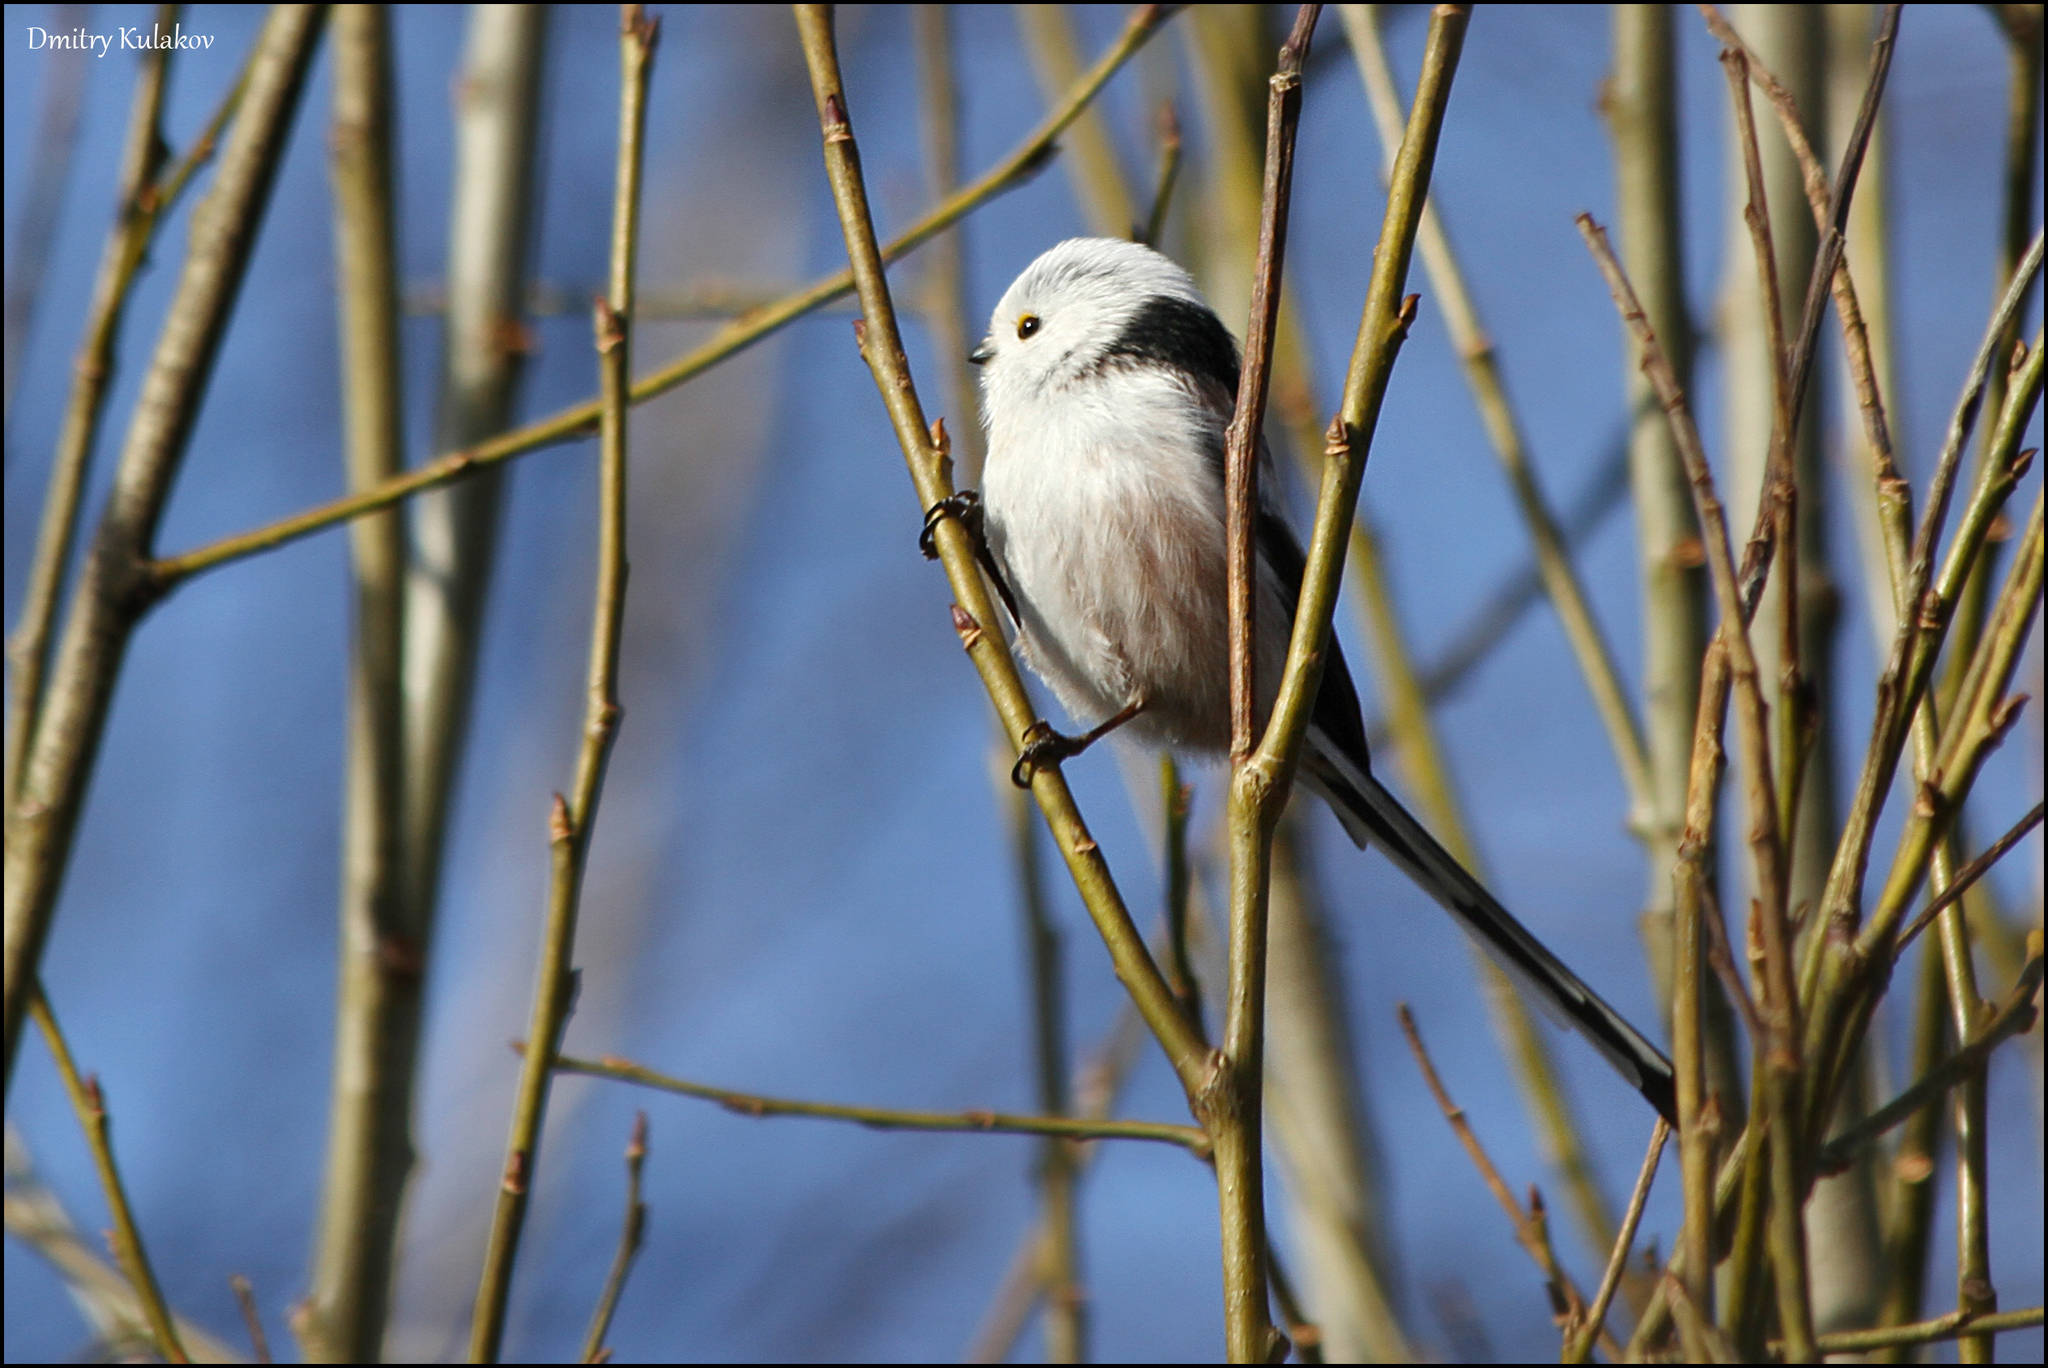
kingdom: Animalia
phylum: Chordata
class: Aves
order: Passeriformes
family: Aegithalidae
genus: Aegithalos
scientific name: Aegithalos caudatus
